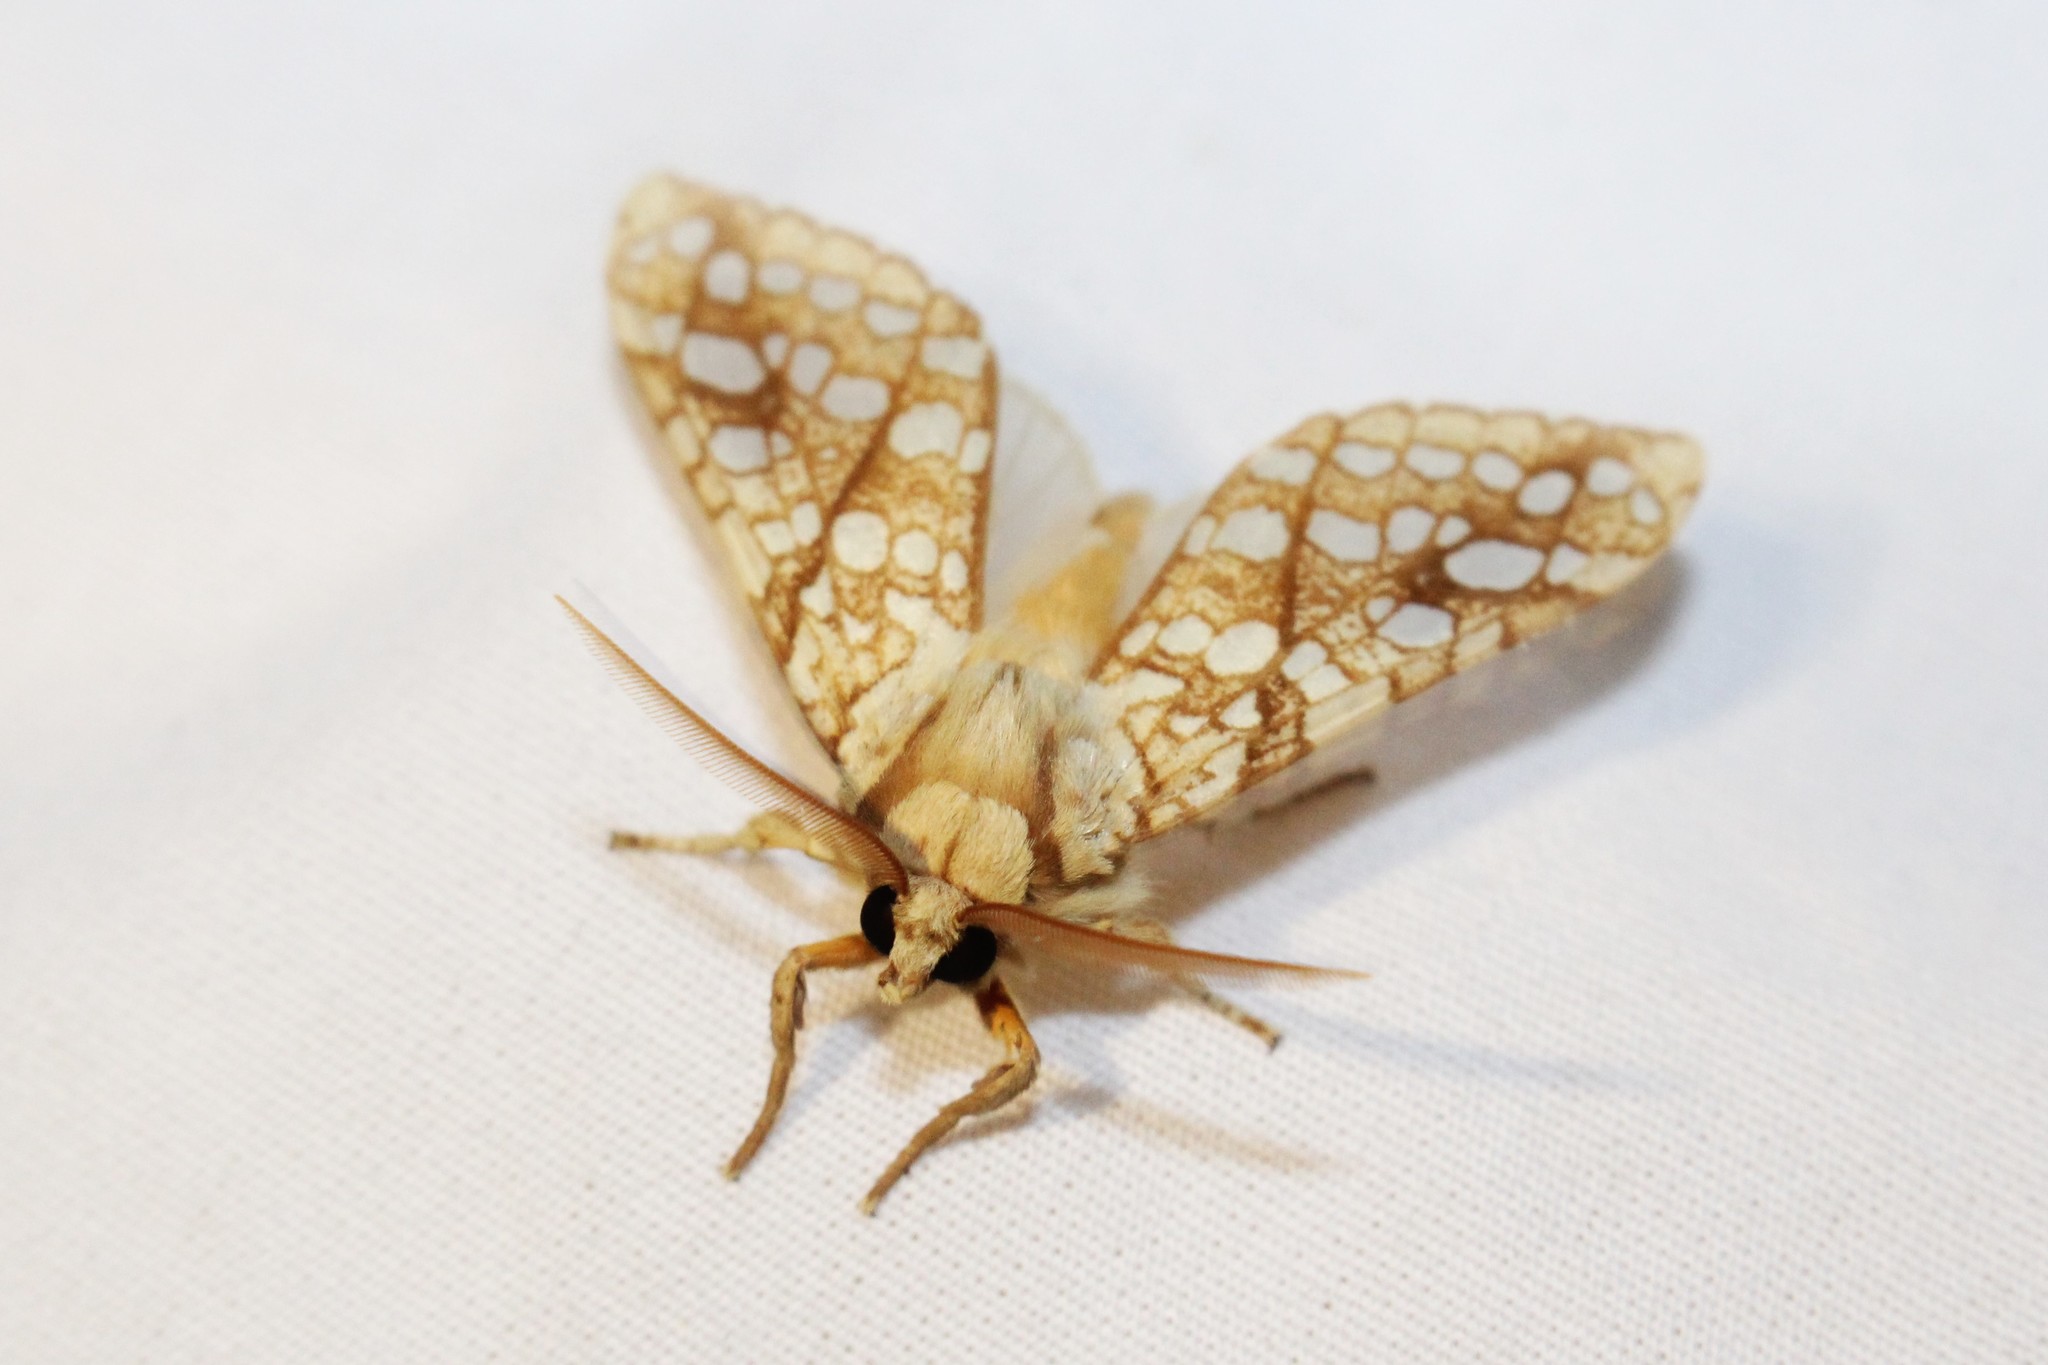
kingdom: Animalia
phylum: Arthropoda
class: Insecta
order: Lepidoptera
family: Erebidae
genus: Lophocampa
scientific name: Lophocampa caryae
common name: Hickory tussock moth
